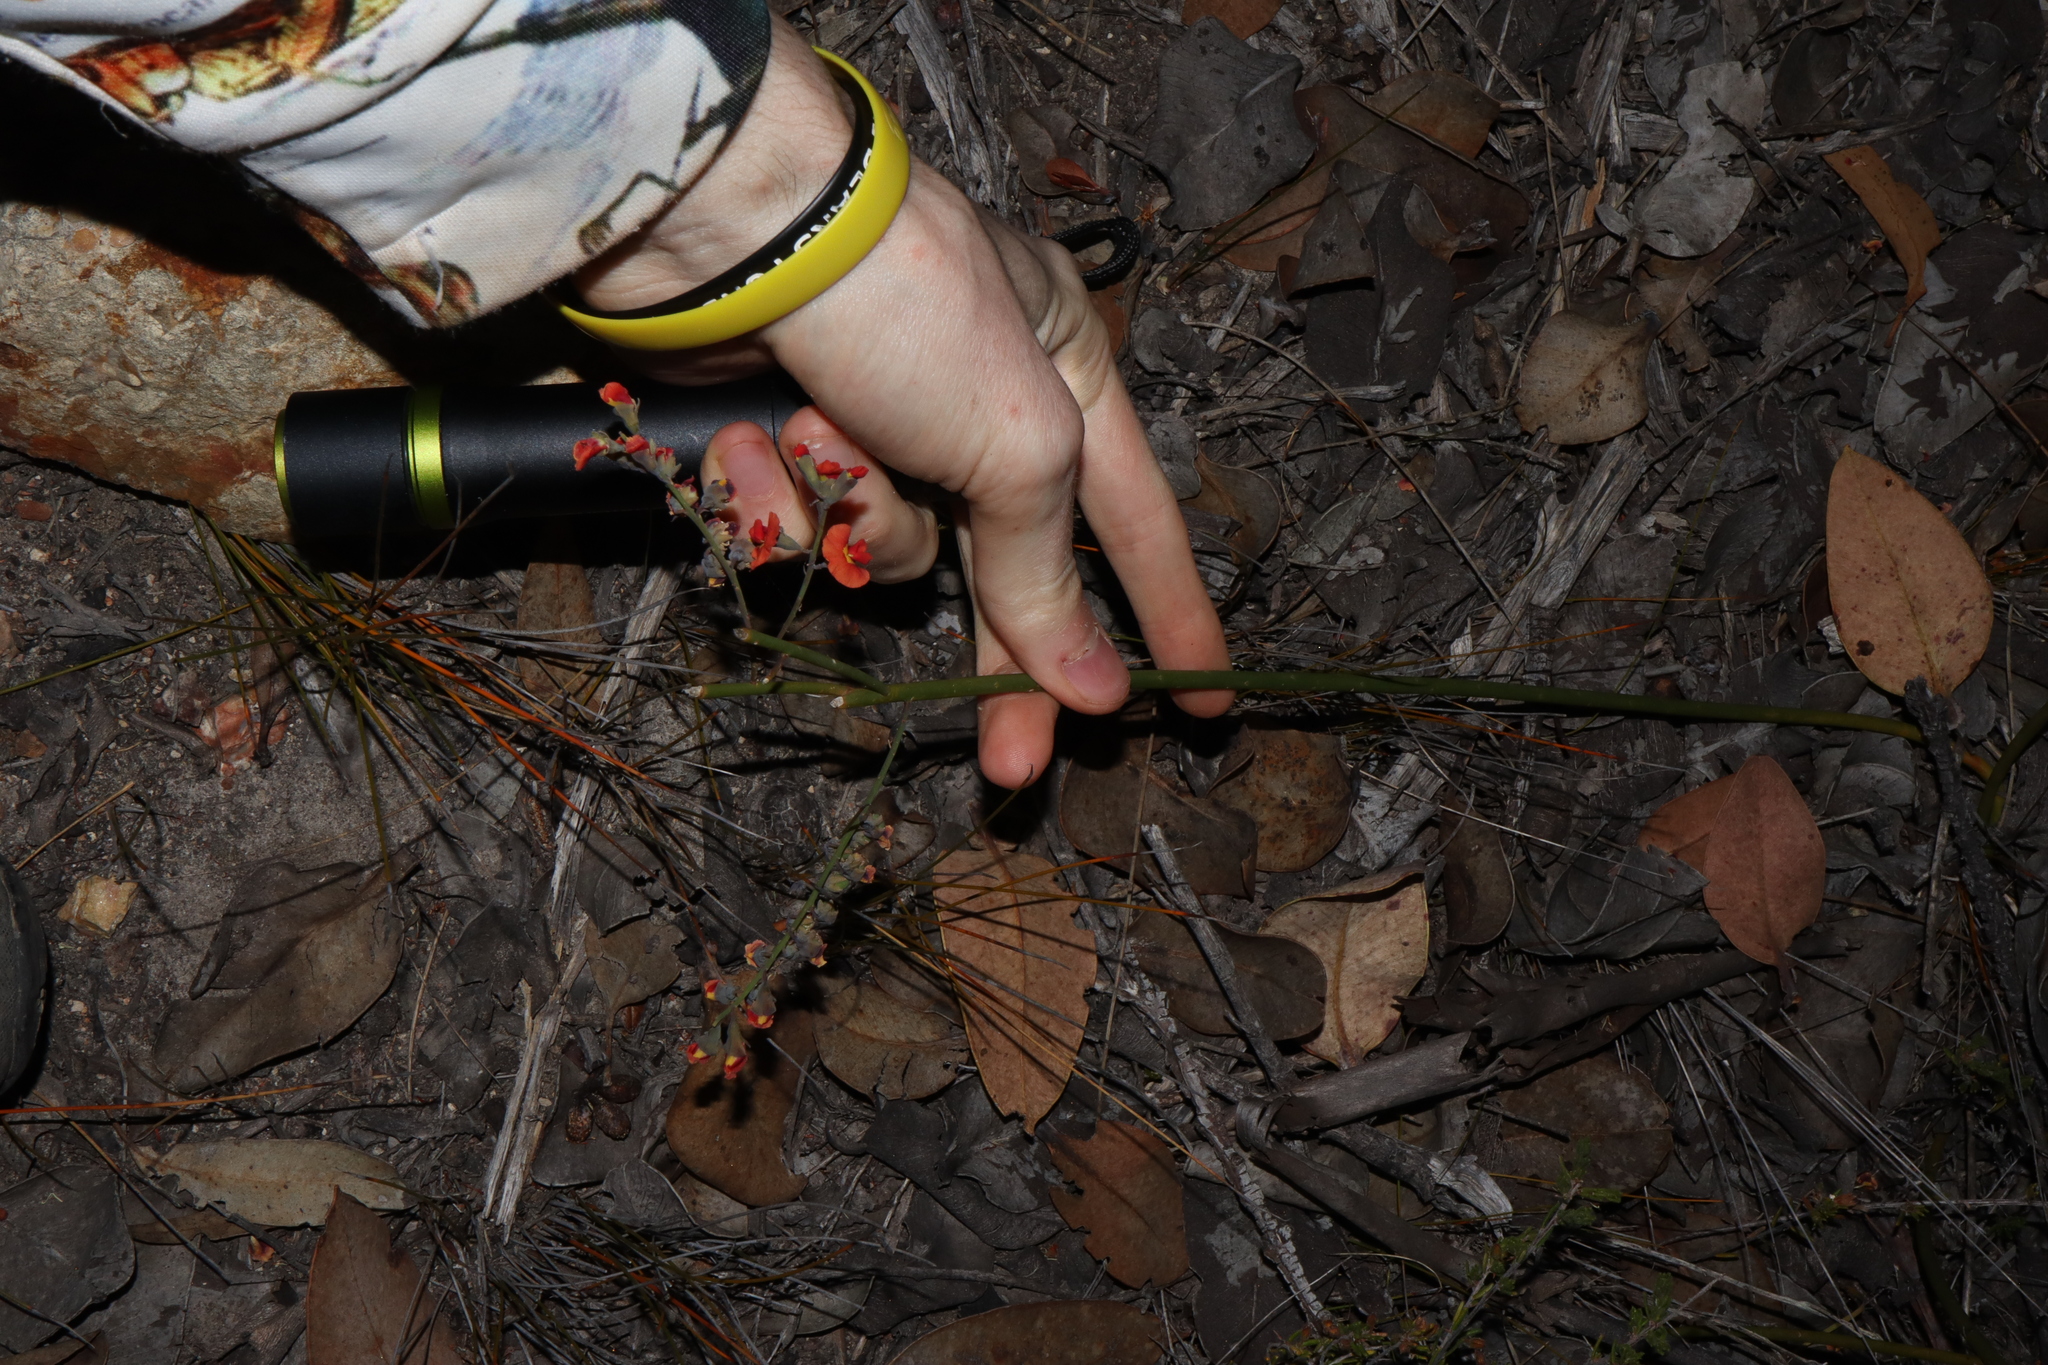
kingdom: Plantae
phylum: Tracheophyta
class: Magnoliopsida
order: Fabales
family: Fabaceae
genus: Sphaerolobium
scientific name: Sphaerolobium racemulosum
